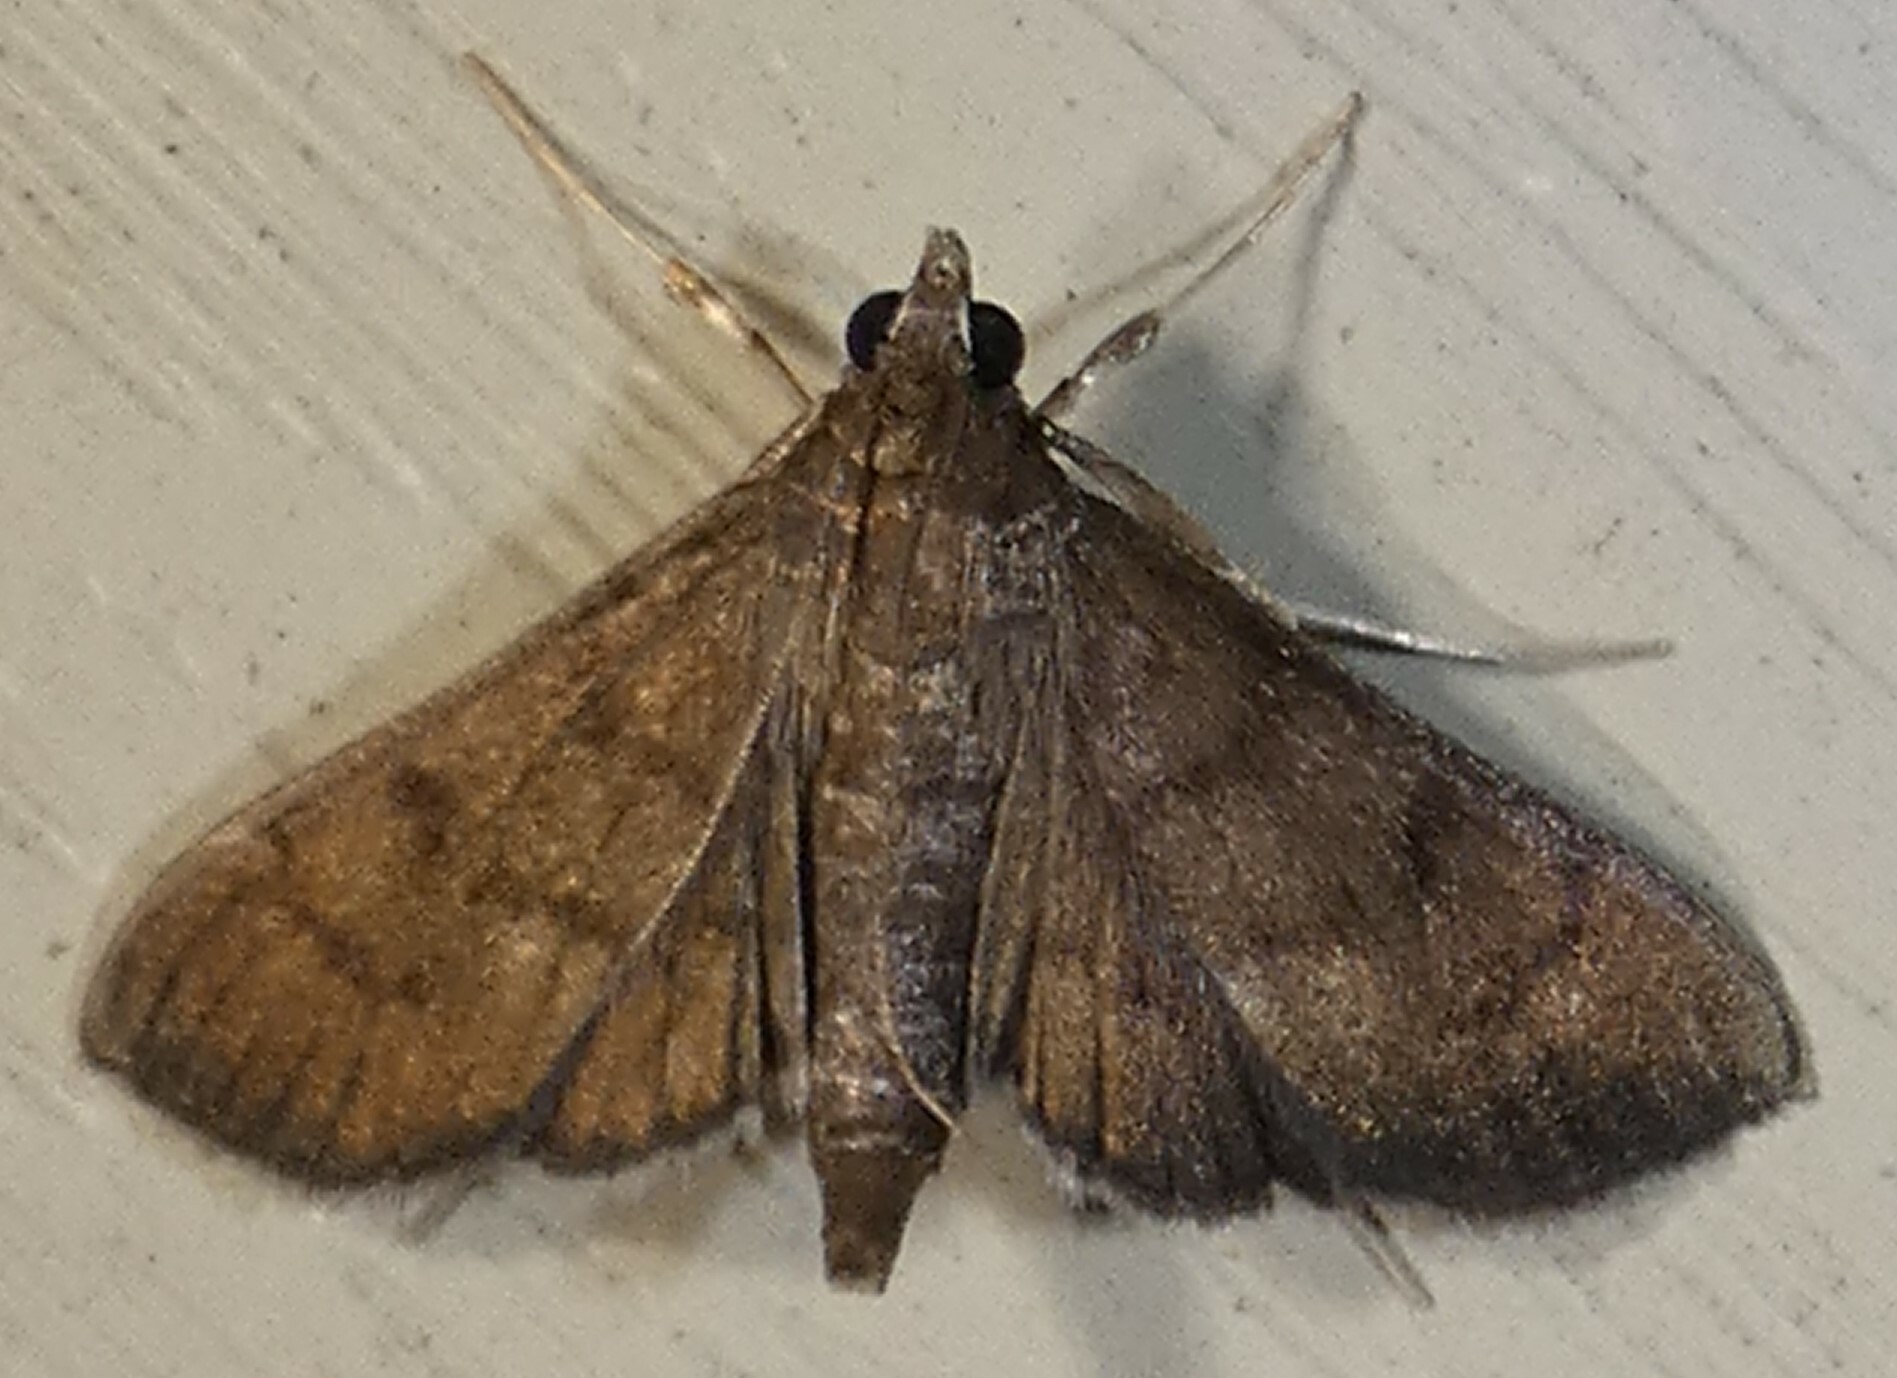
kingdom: Animalia
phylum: Arthropoda
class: Insecta
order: Lepidoptera
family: Crambidae
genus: Herpetogramma
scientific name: Herpetogramma phaeopteralis
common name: Dusky herpetogramma moth
